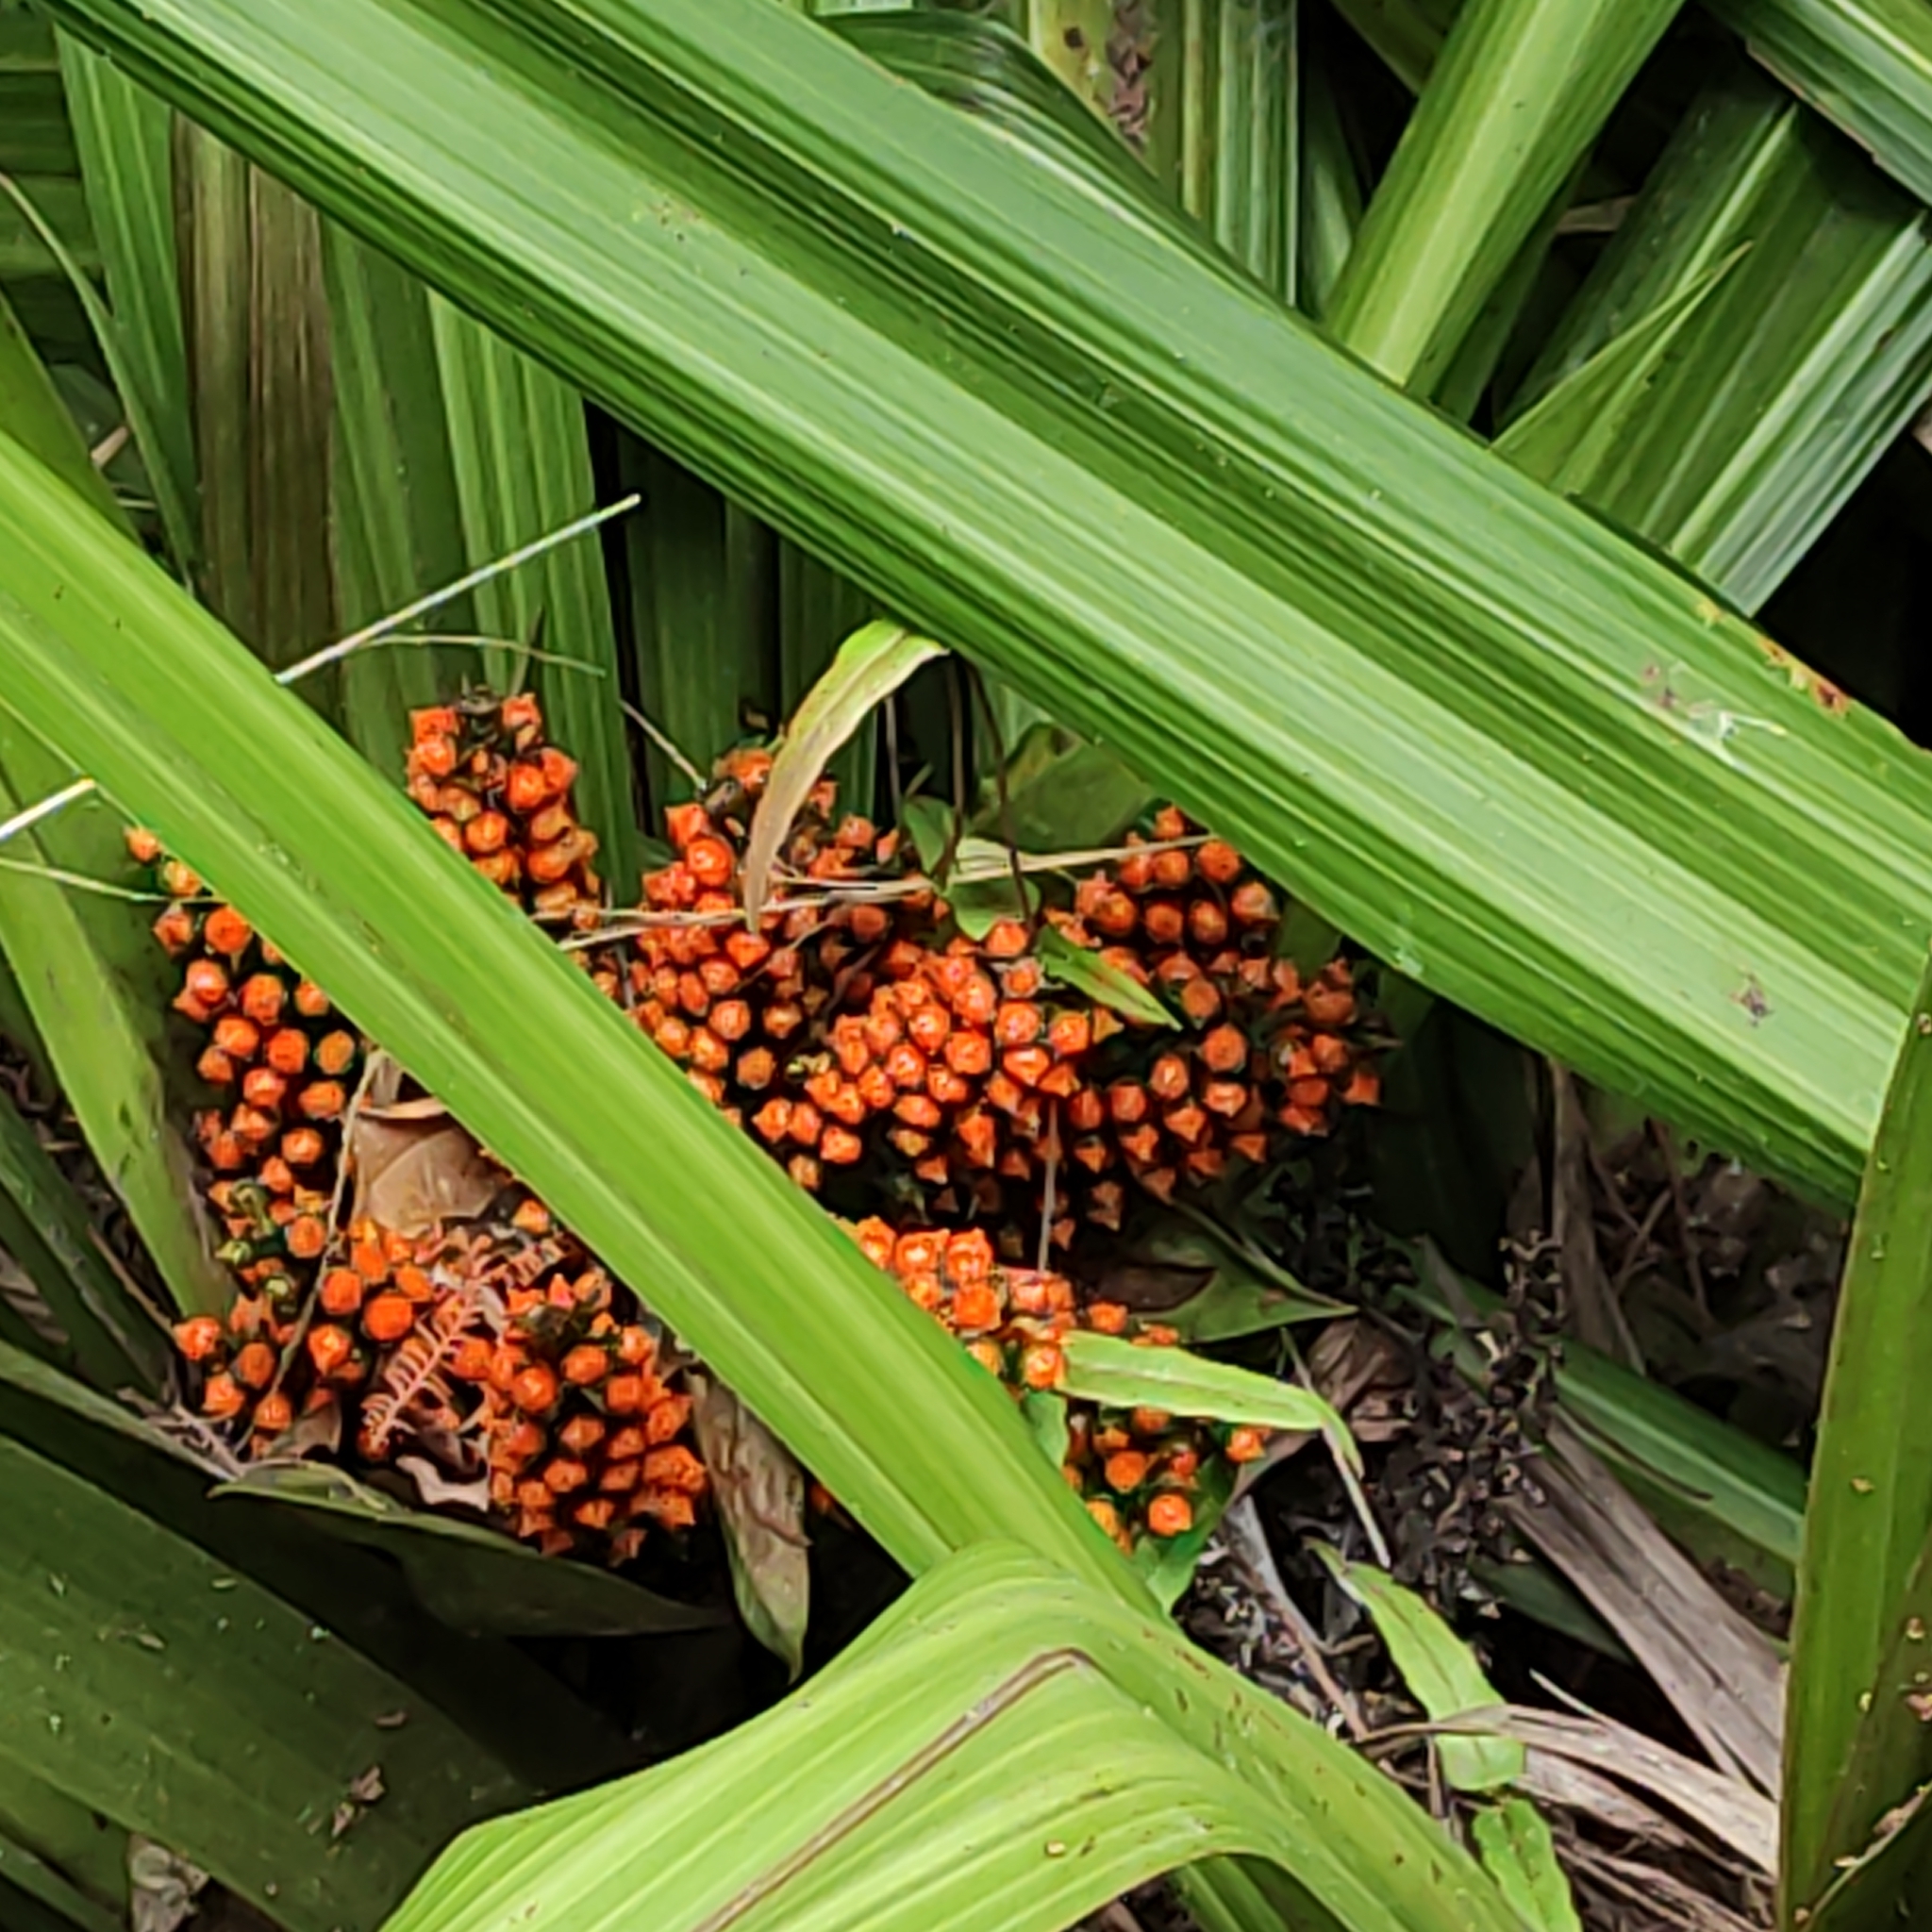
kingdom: Plantae
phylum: Tracheophyta
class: Liliopsida
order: Asparagales
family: Asteliaceae
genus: Astelia
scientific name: Astelia fragrans
